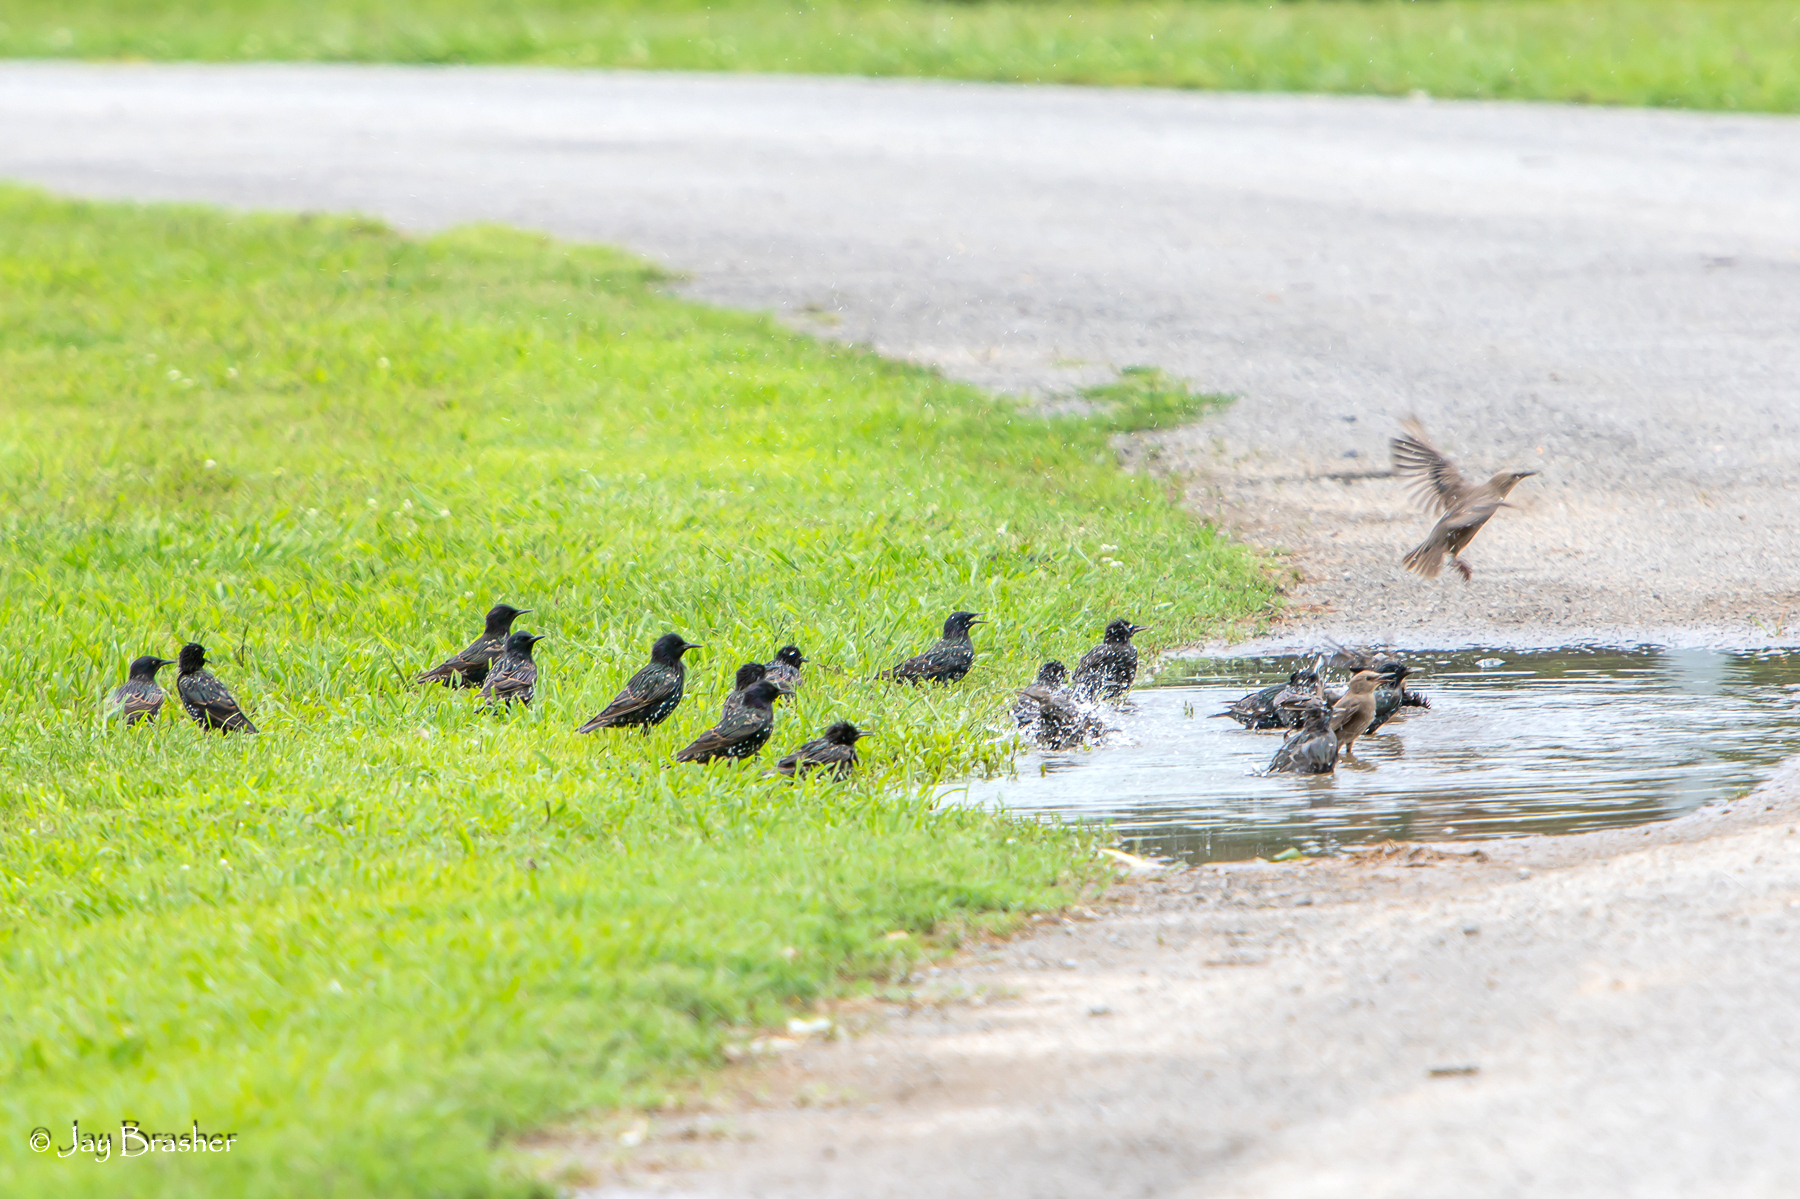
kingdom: Animalia
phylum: Chordata
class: Aves
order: Passeriformes
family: Sturnidae
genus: Sturnus
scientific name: Sturnus vulgaris
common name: Common starling
